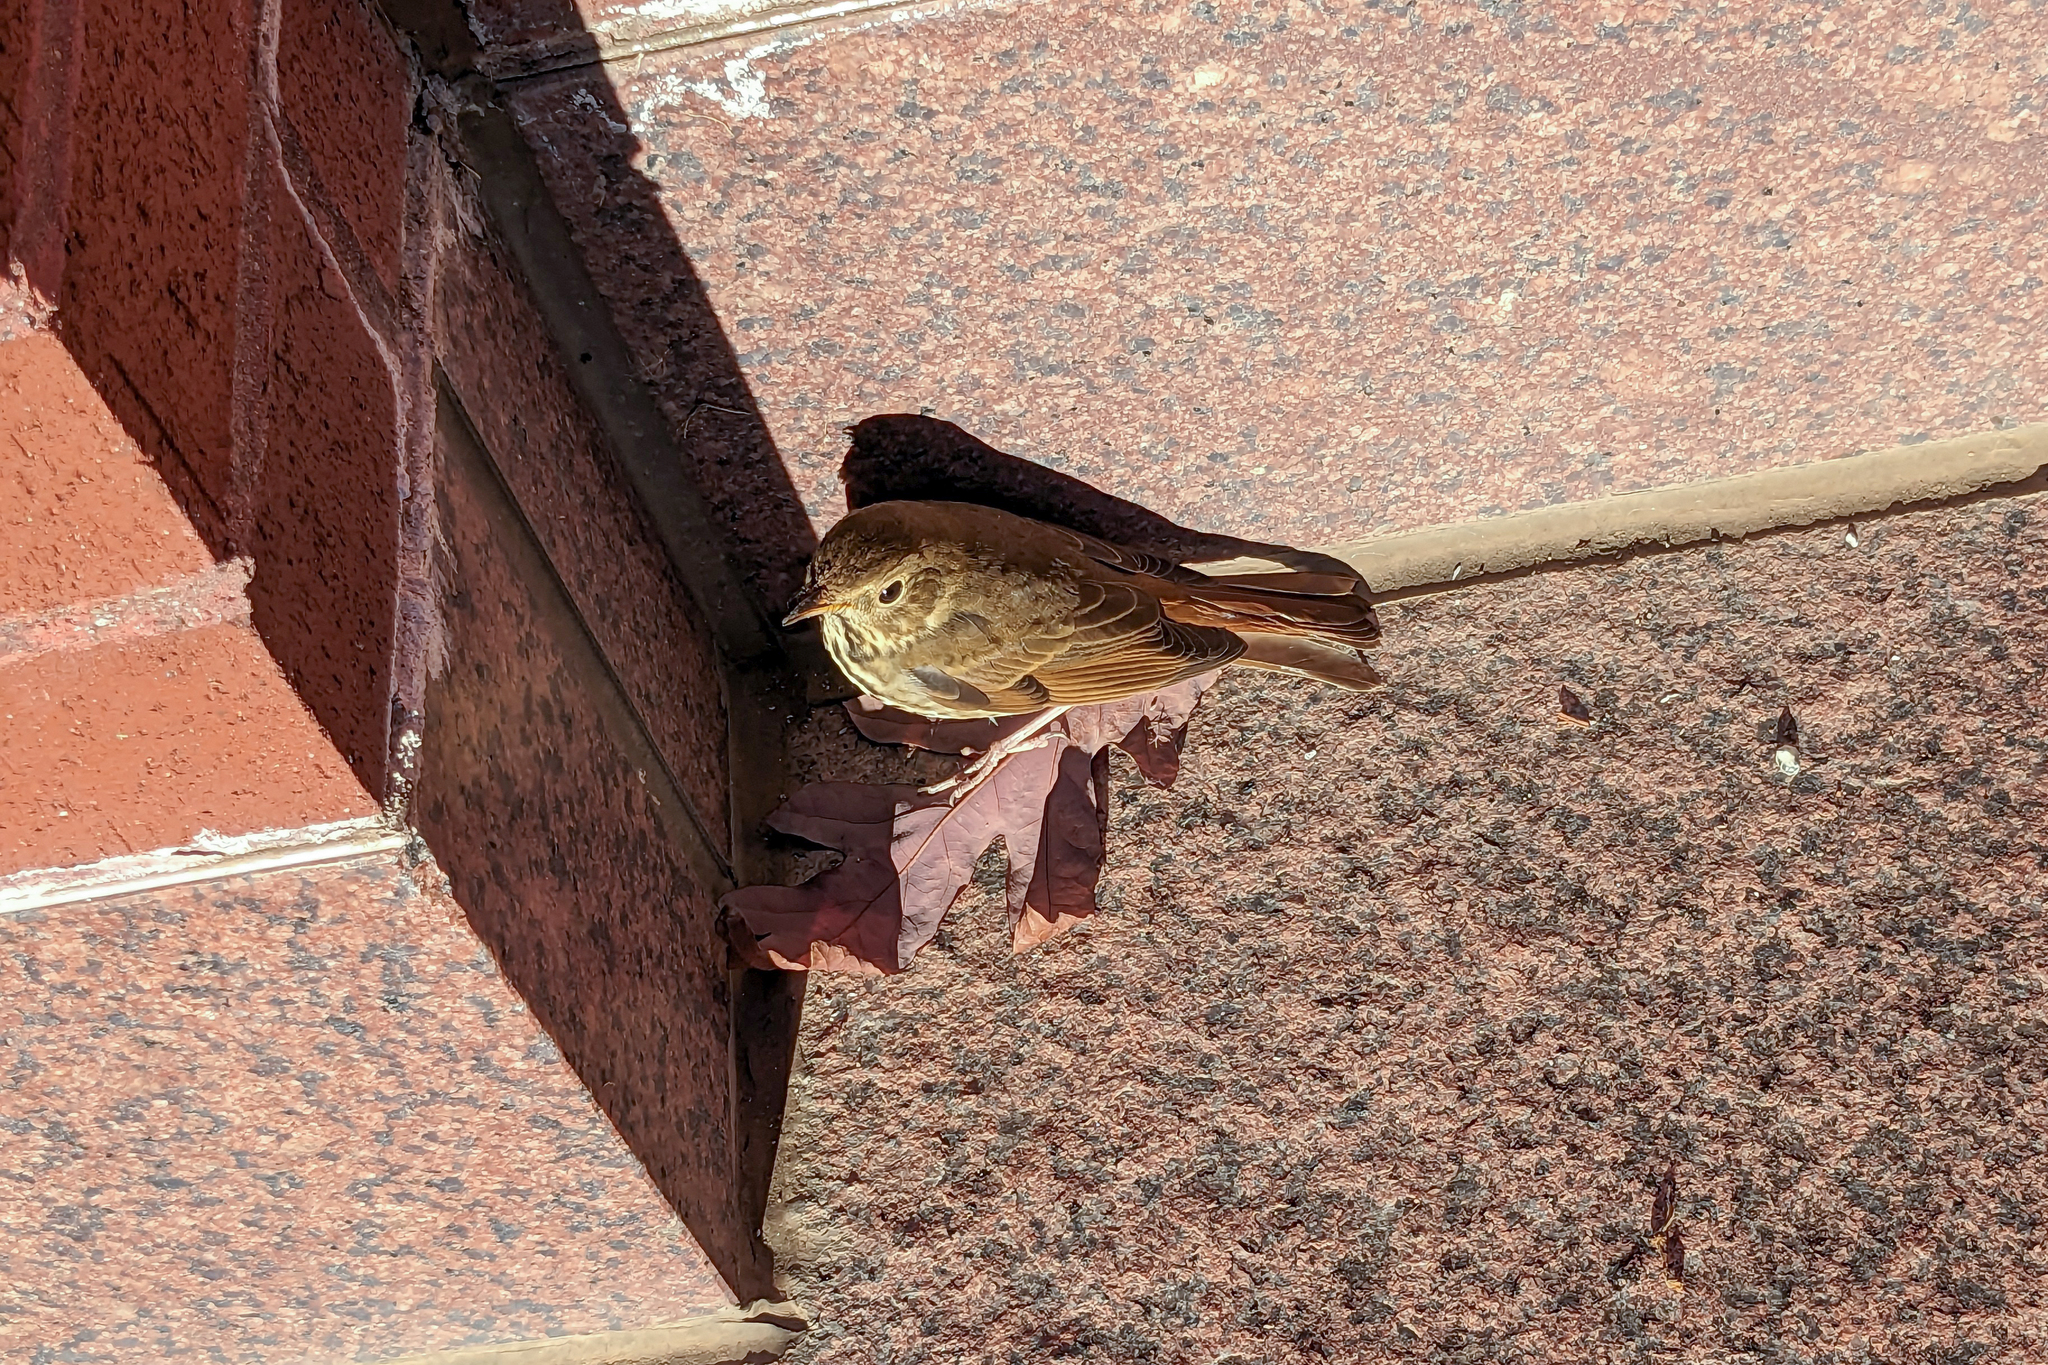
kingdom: Animalia
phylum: Chordata
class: Aves
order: Passeriformes
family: Turdidae
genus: Catharus
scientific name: Catharus guttatus
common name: Hermit thrush
